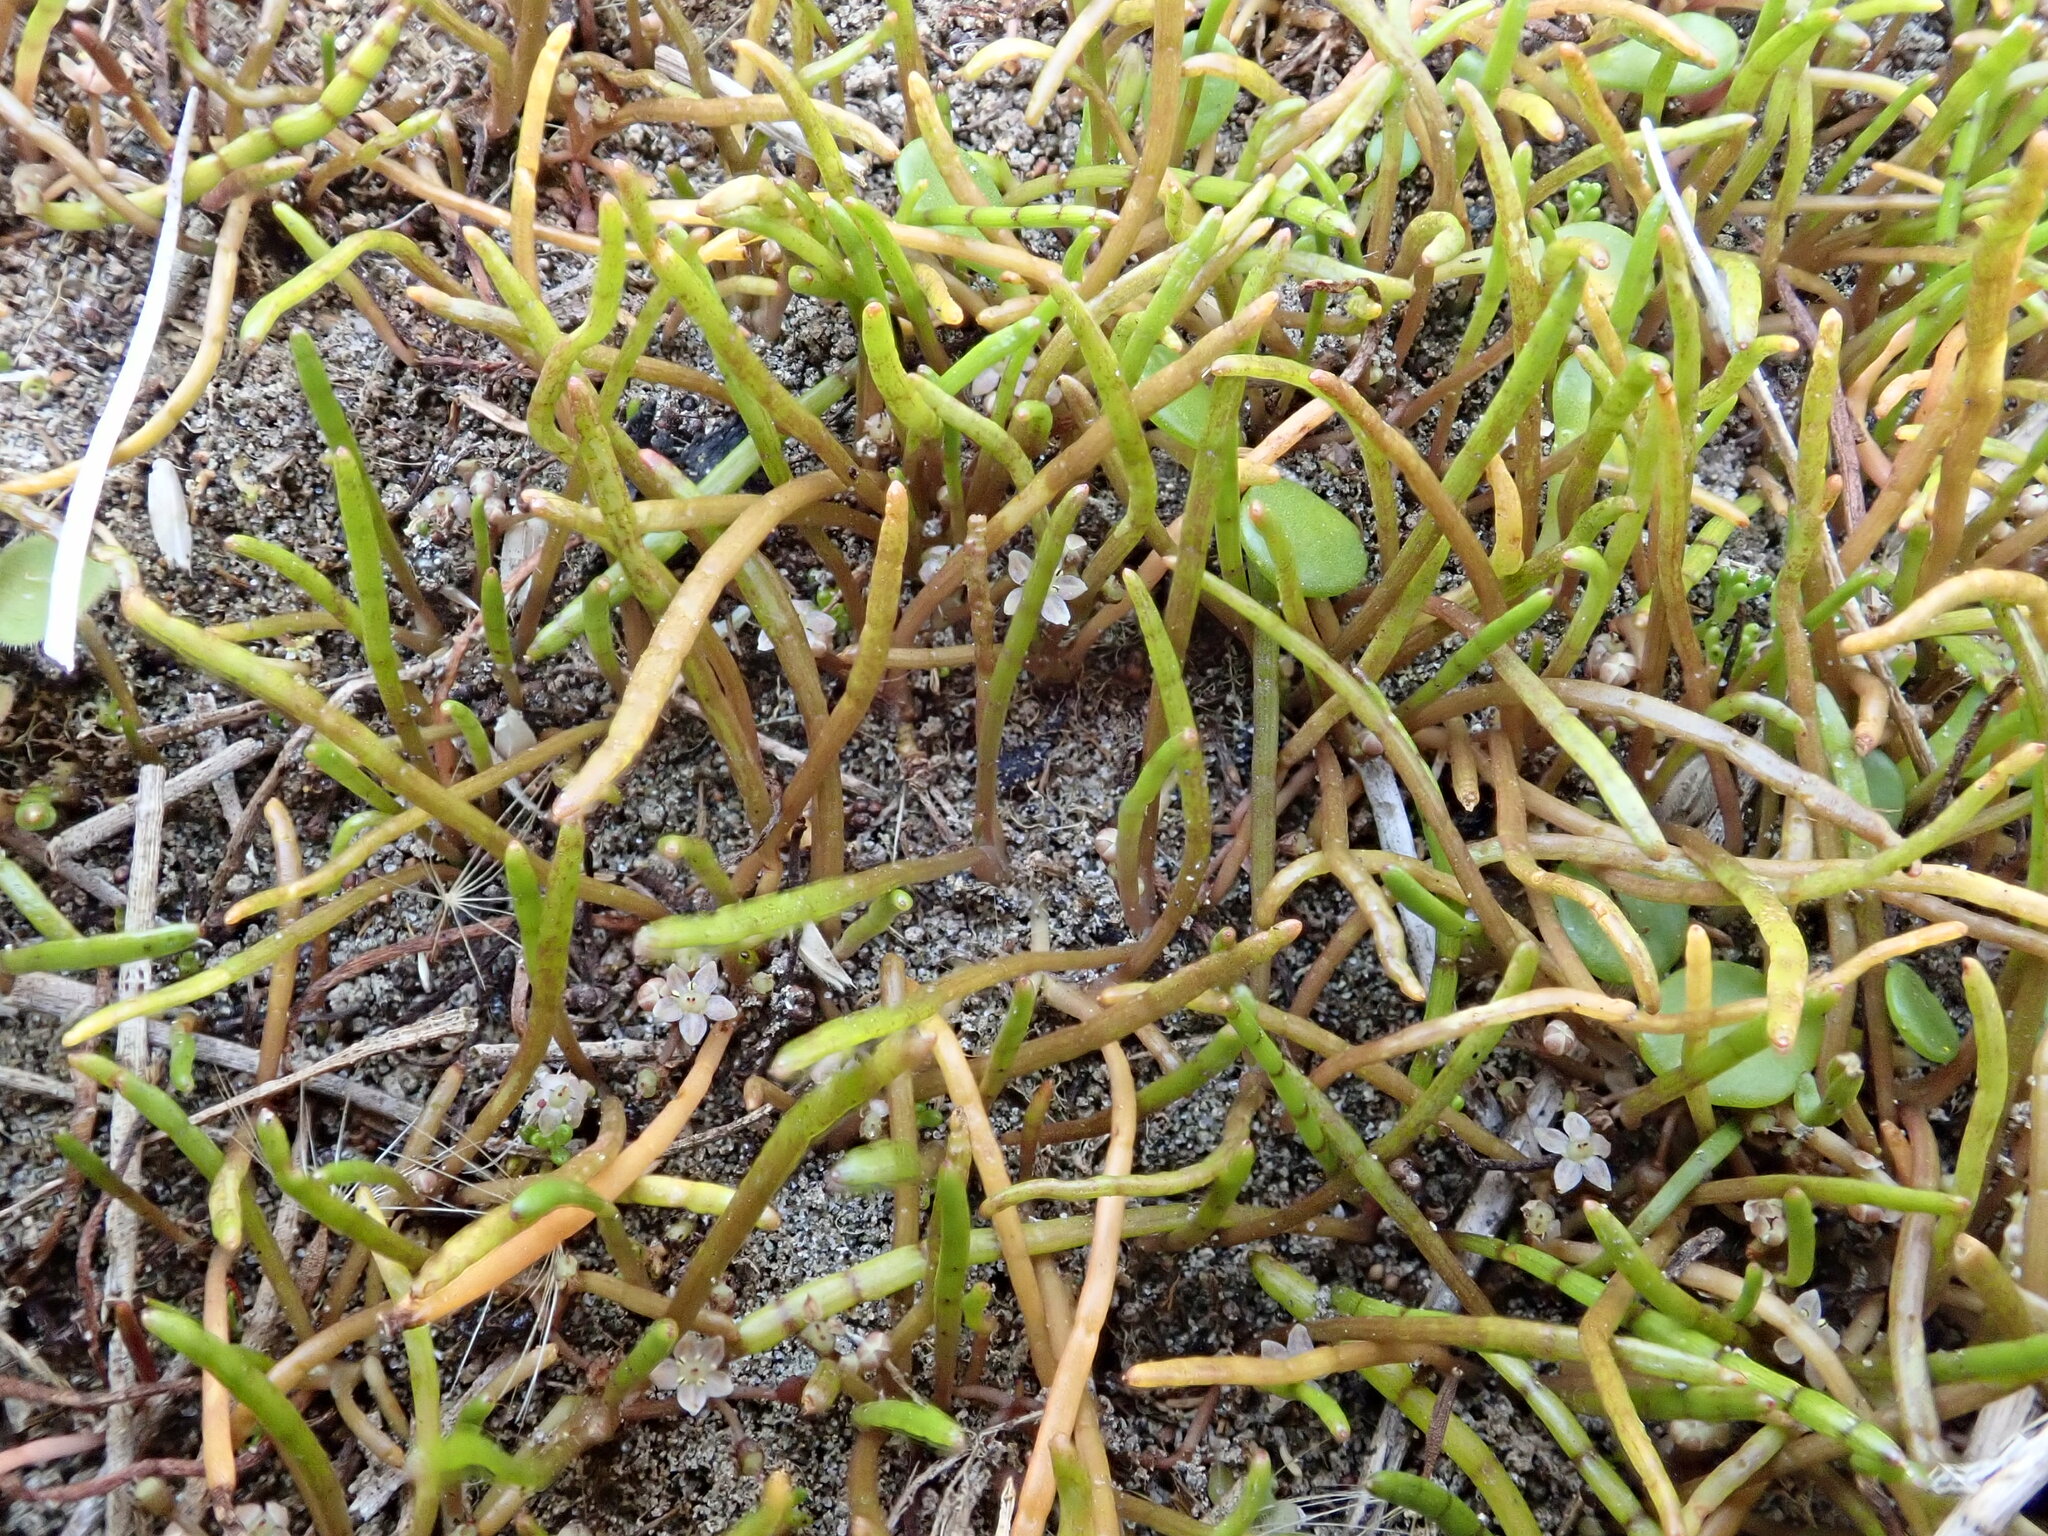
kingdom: Plantae
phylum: Tracheophyta
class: Magnoliopsida
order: Apiales
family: Apiaceae
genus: Lilaeopsis
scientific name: Lilaeopsis novae-zelandiae
